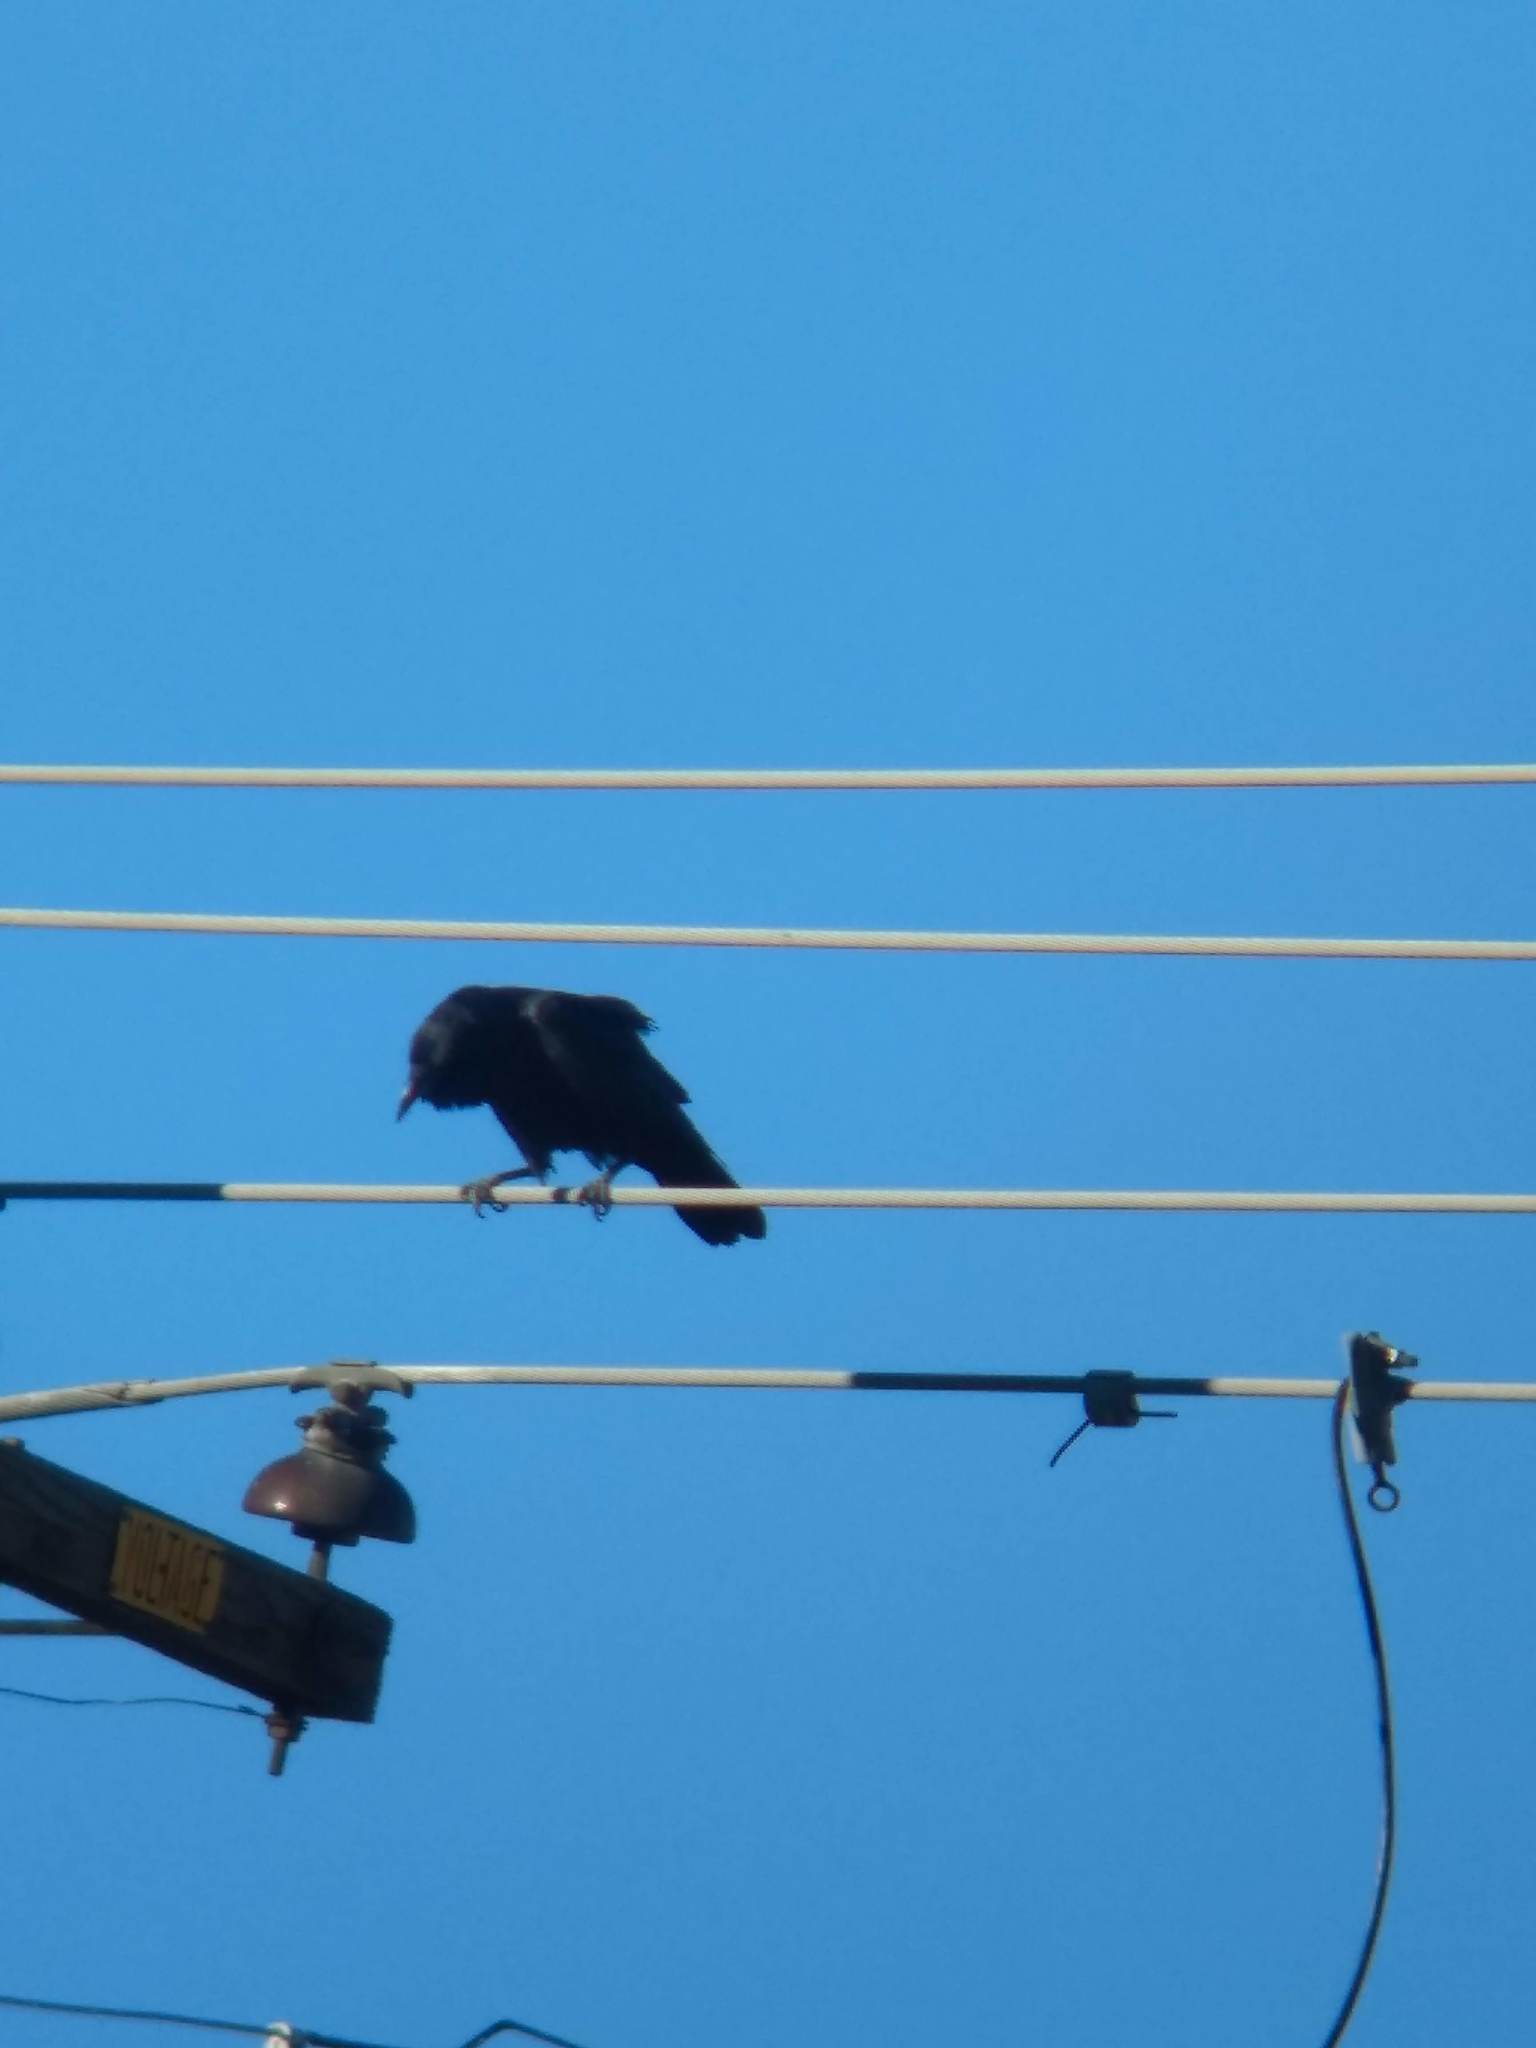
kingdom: Animalia
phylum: Chordata
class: Aves
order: Passeriformes
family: Corvidae
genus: Corvus
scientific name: Corvus corax
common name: Common raven
